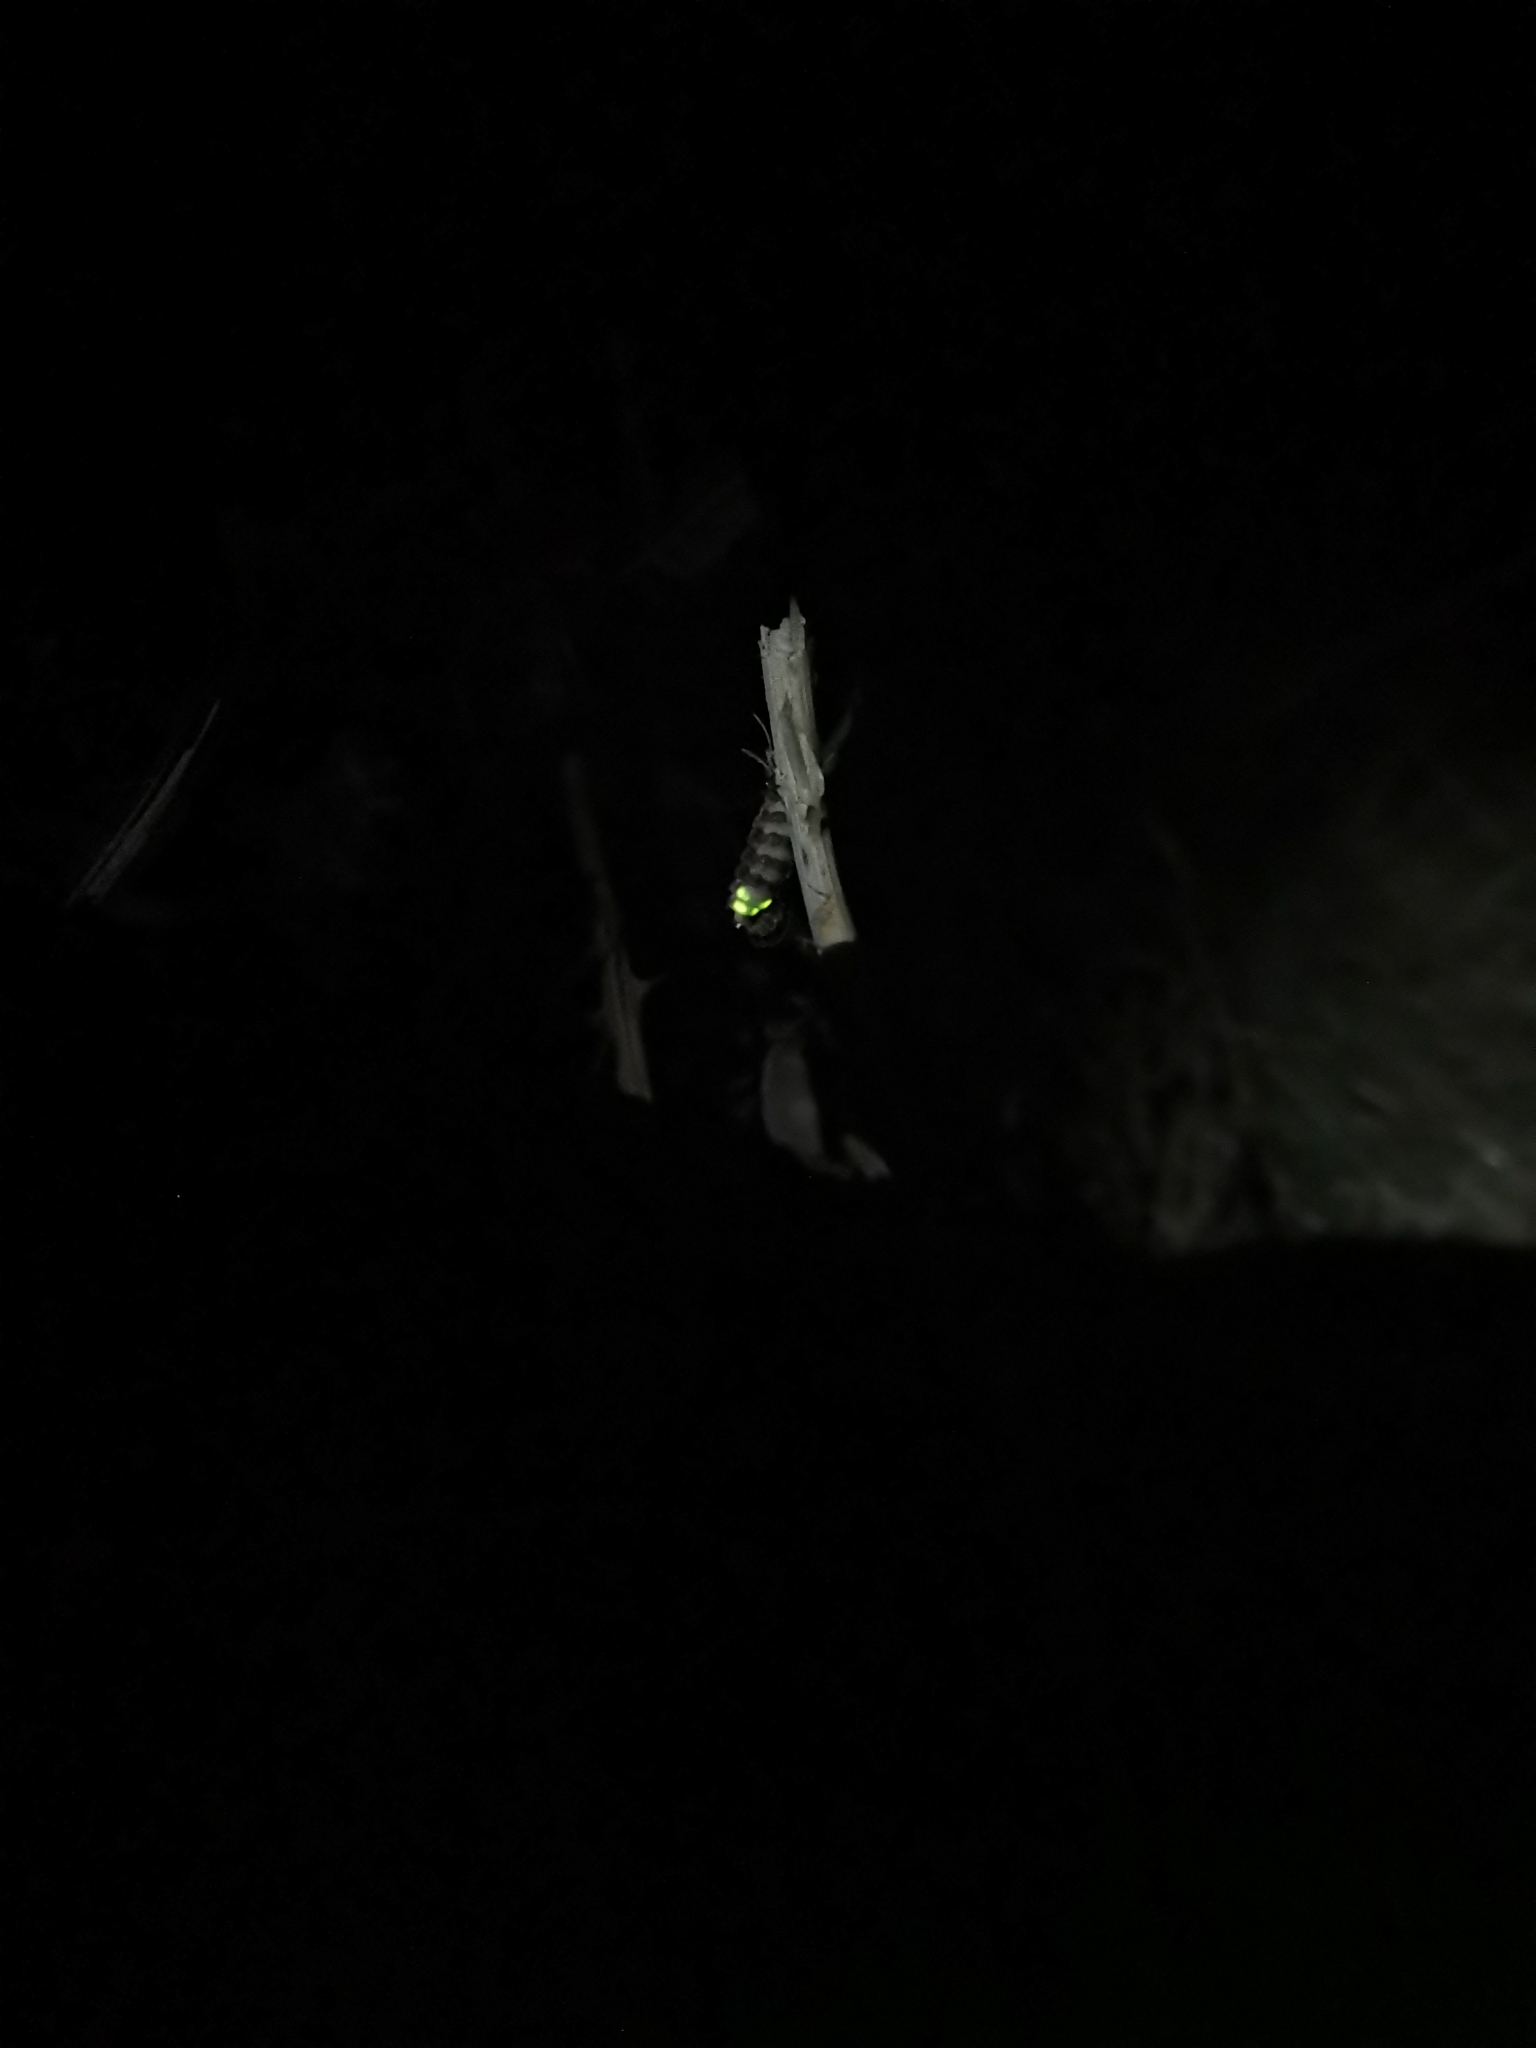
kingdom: Animalia
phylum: Arthropoda
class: Insecta
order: Coleoptera
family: Lampyridae
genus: Lampyris
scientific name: Lampyris noctiluca
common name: Glow-worm
